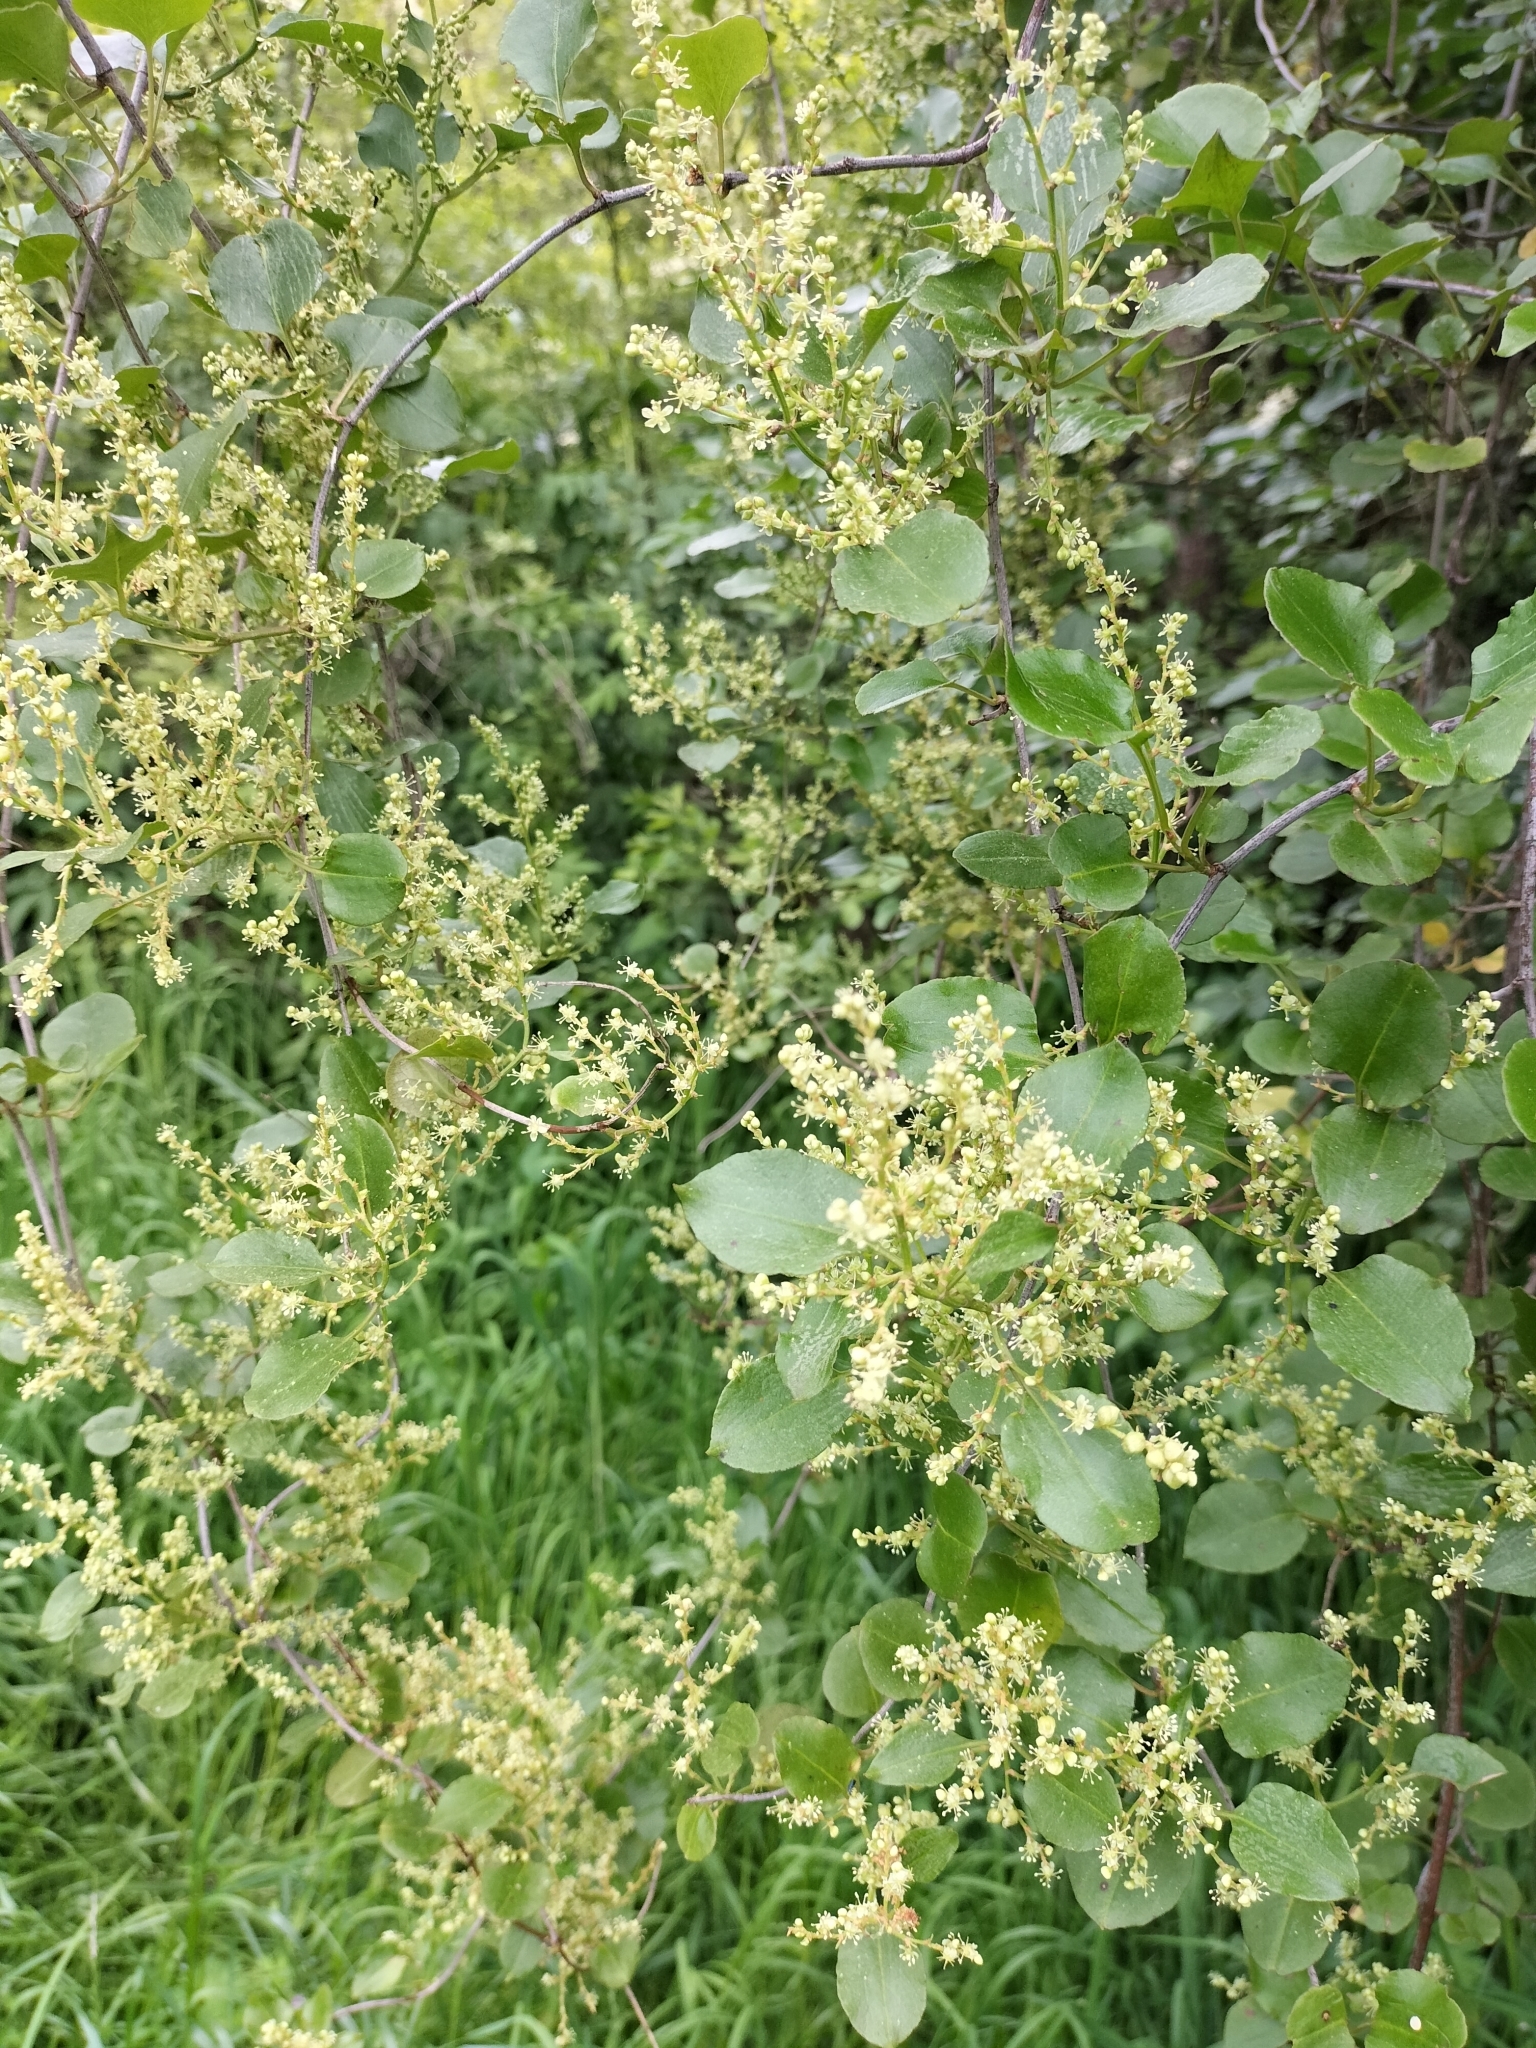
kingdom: Plantae
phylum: Tracheophyta
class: Magnoliopsida
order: Caryophyllales
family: Polygonaceae
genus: Muehlenbeckia
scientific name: Muehlenbeckia australis
